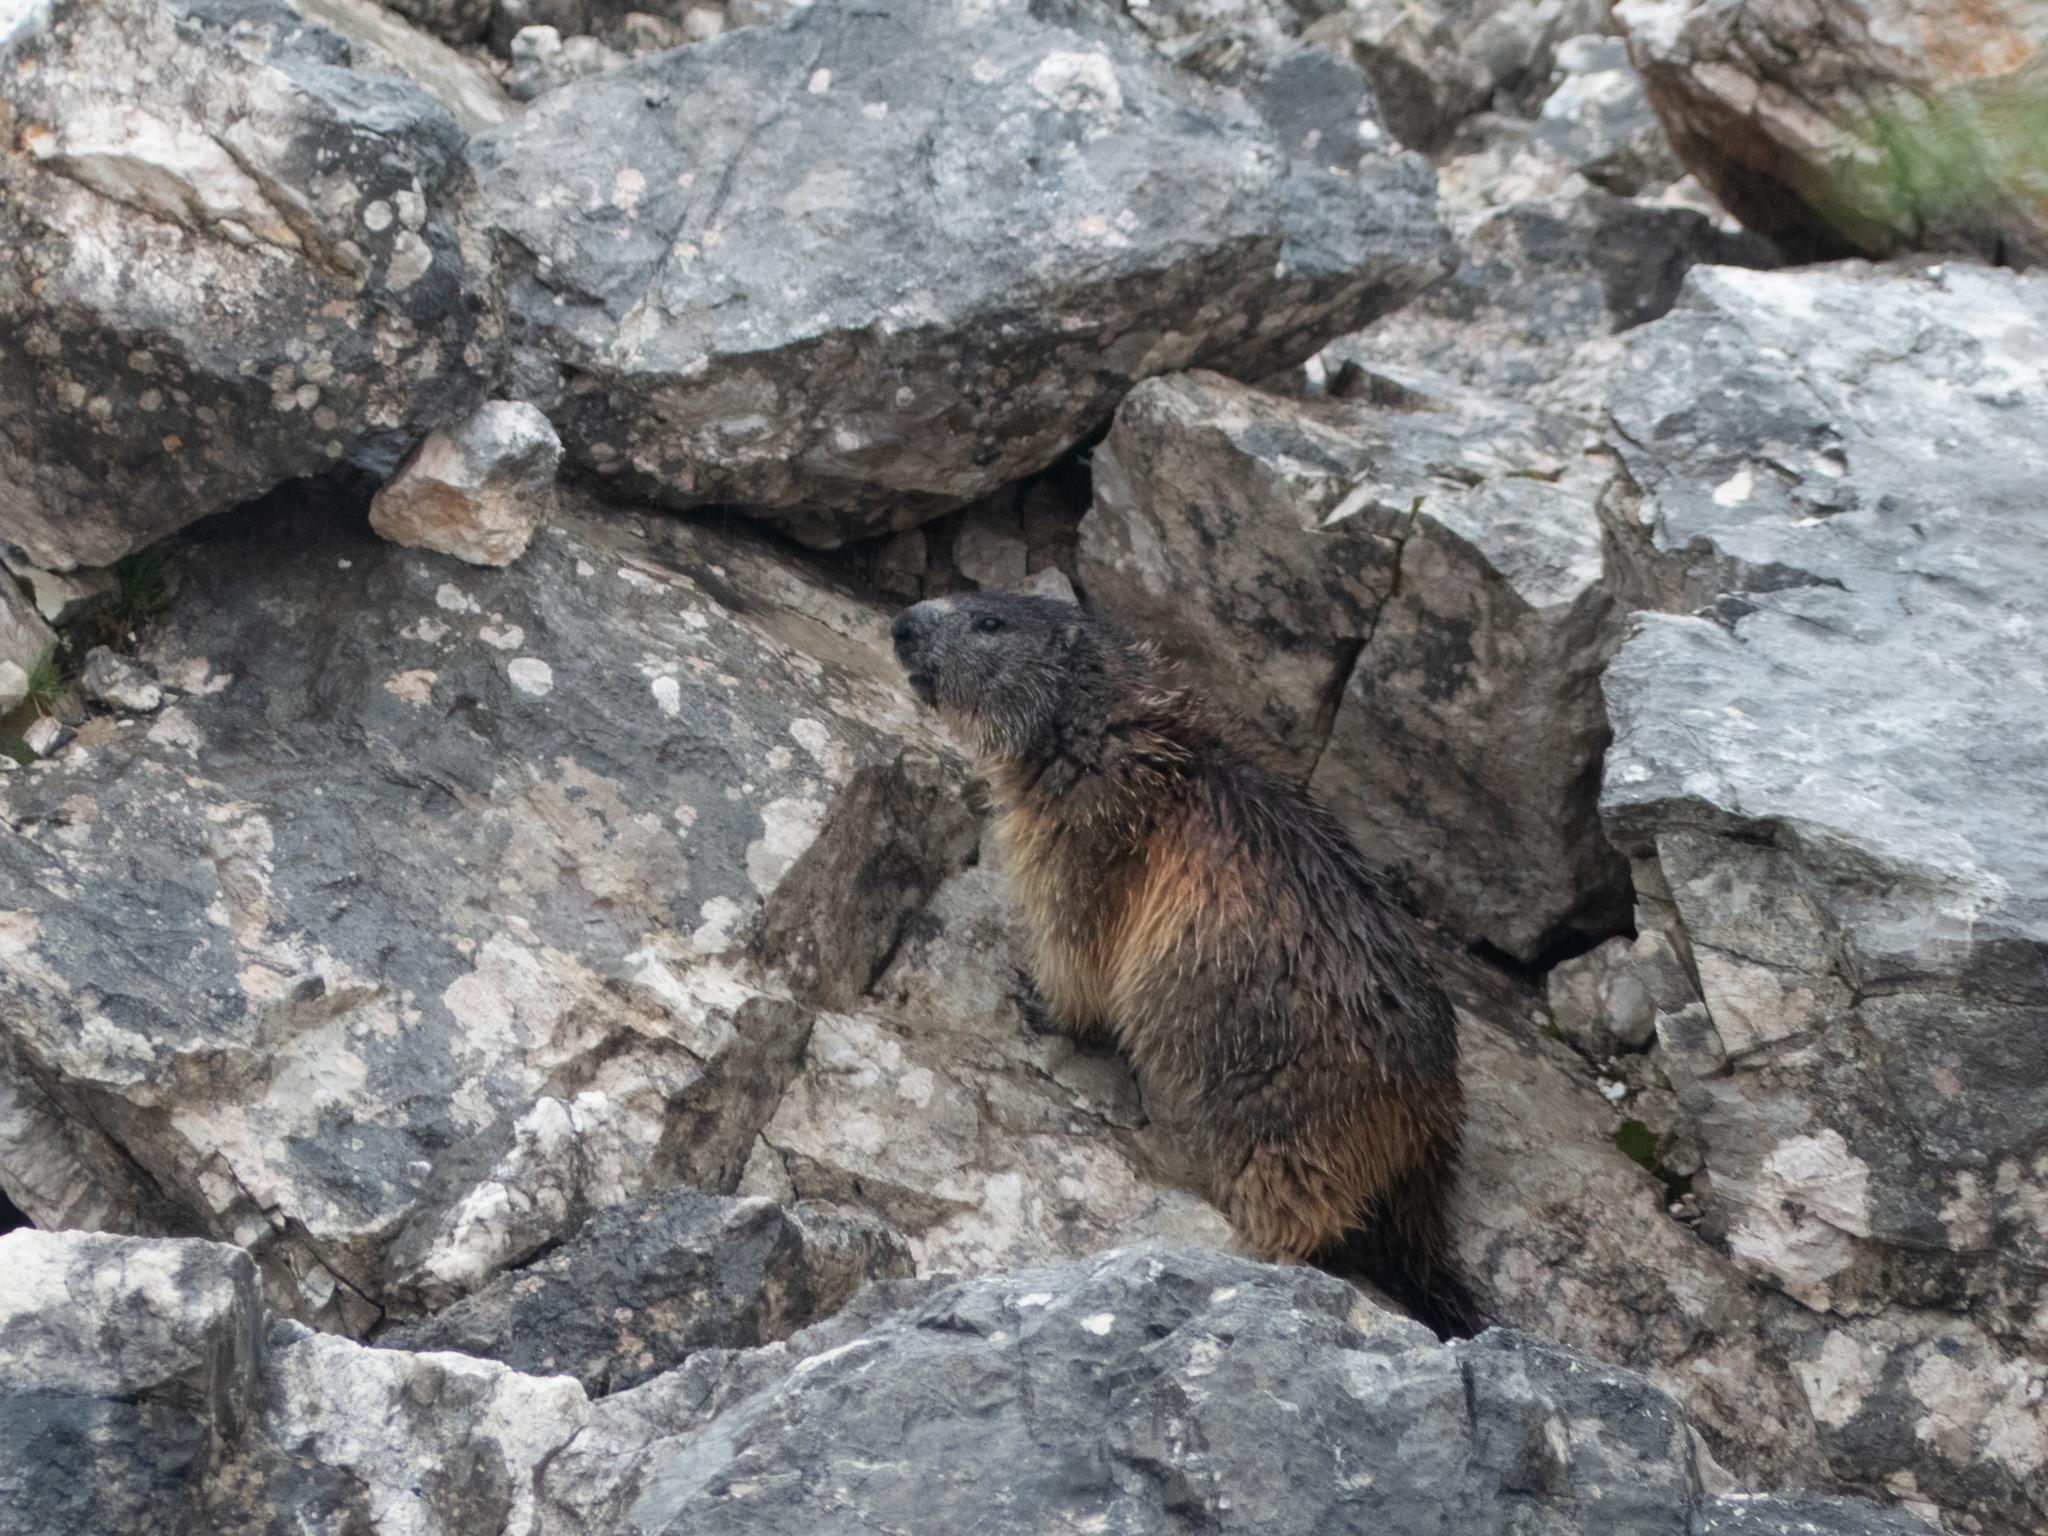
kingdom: Animalia
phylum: Chordata
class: Mammalia
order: Rodentia
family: Sciuridae
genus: Marmota
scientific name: Marmota marmota
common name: Alpine marmot
